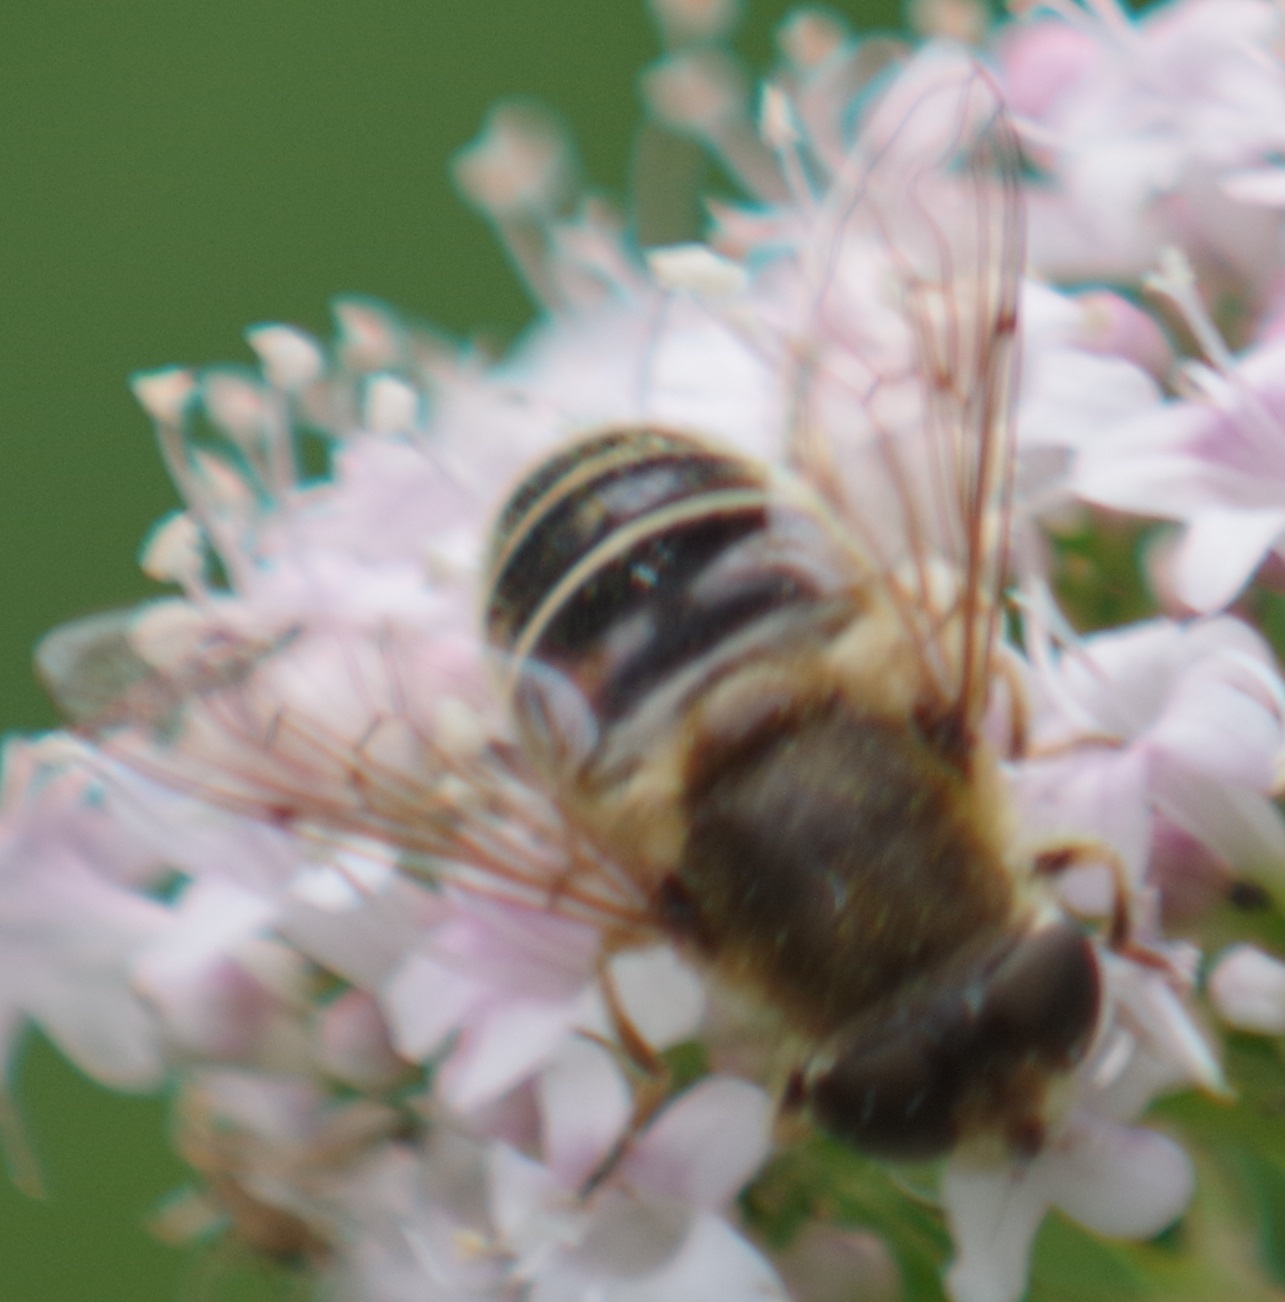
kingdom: Animalia
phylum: Arthropoda
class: Insecta
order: Diptera
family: Syrphidae
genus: Eristalis
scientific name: Eristalis pertinax
